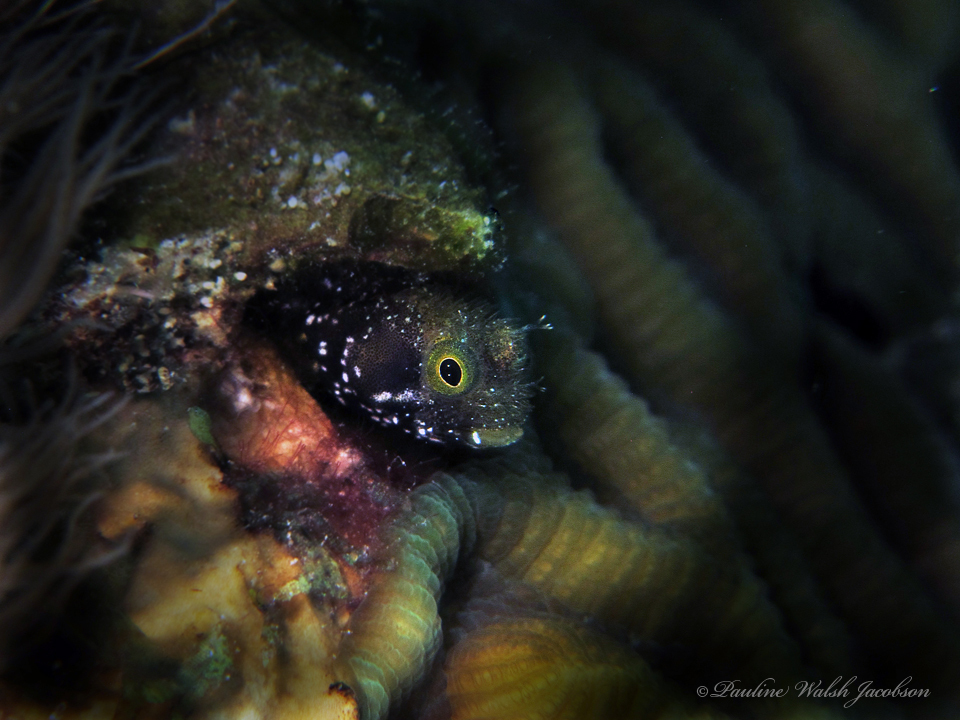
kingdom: Animalia
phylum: Chordata
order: Perciformes
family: Chaenopsidae
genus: Acanthemblemaria
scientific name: Acanthemblemaria spinosa
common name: Spinyhead blenny
